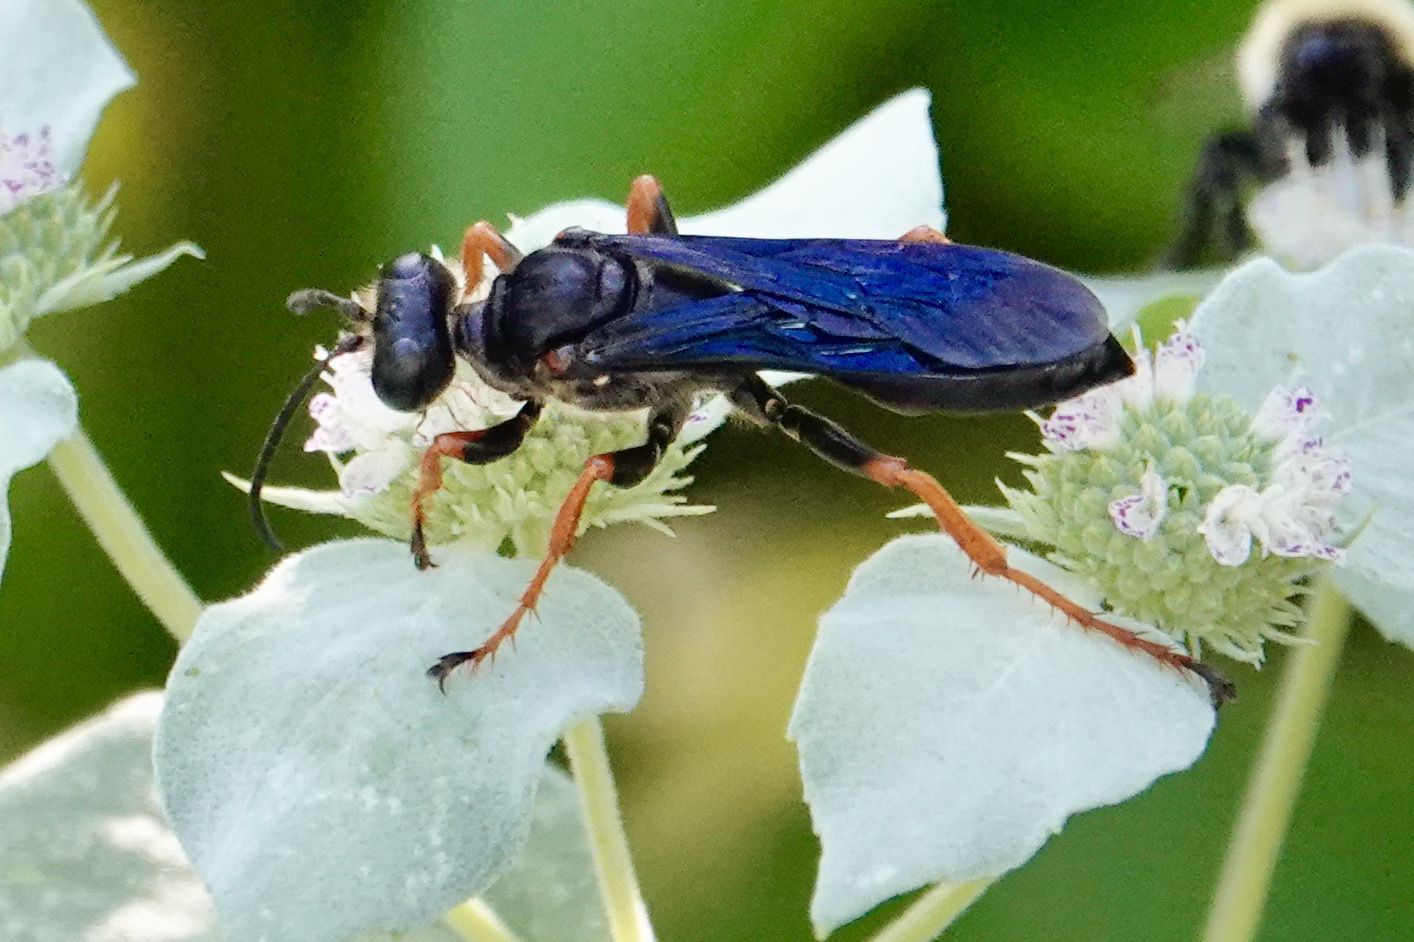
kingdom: Animalia
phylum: Arthropoda
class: Insecta
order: Hymenoptera
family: Sphecidae
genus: Sphex
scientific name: Sphex nudus
